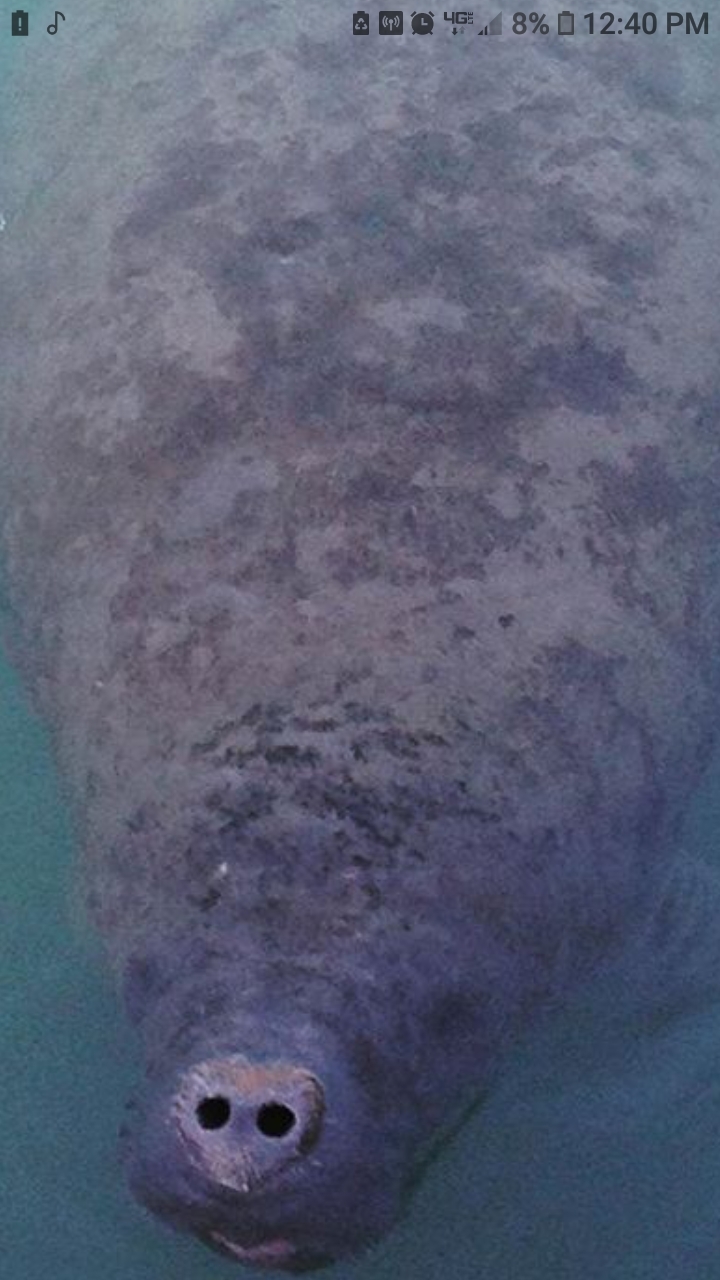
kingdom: Animalia
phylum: Chordata
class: Mammalia
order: Sirenia
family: Trichechidae
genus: Trichechus
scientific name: Trichechus manatus
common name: West indian manatee
